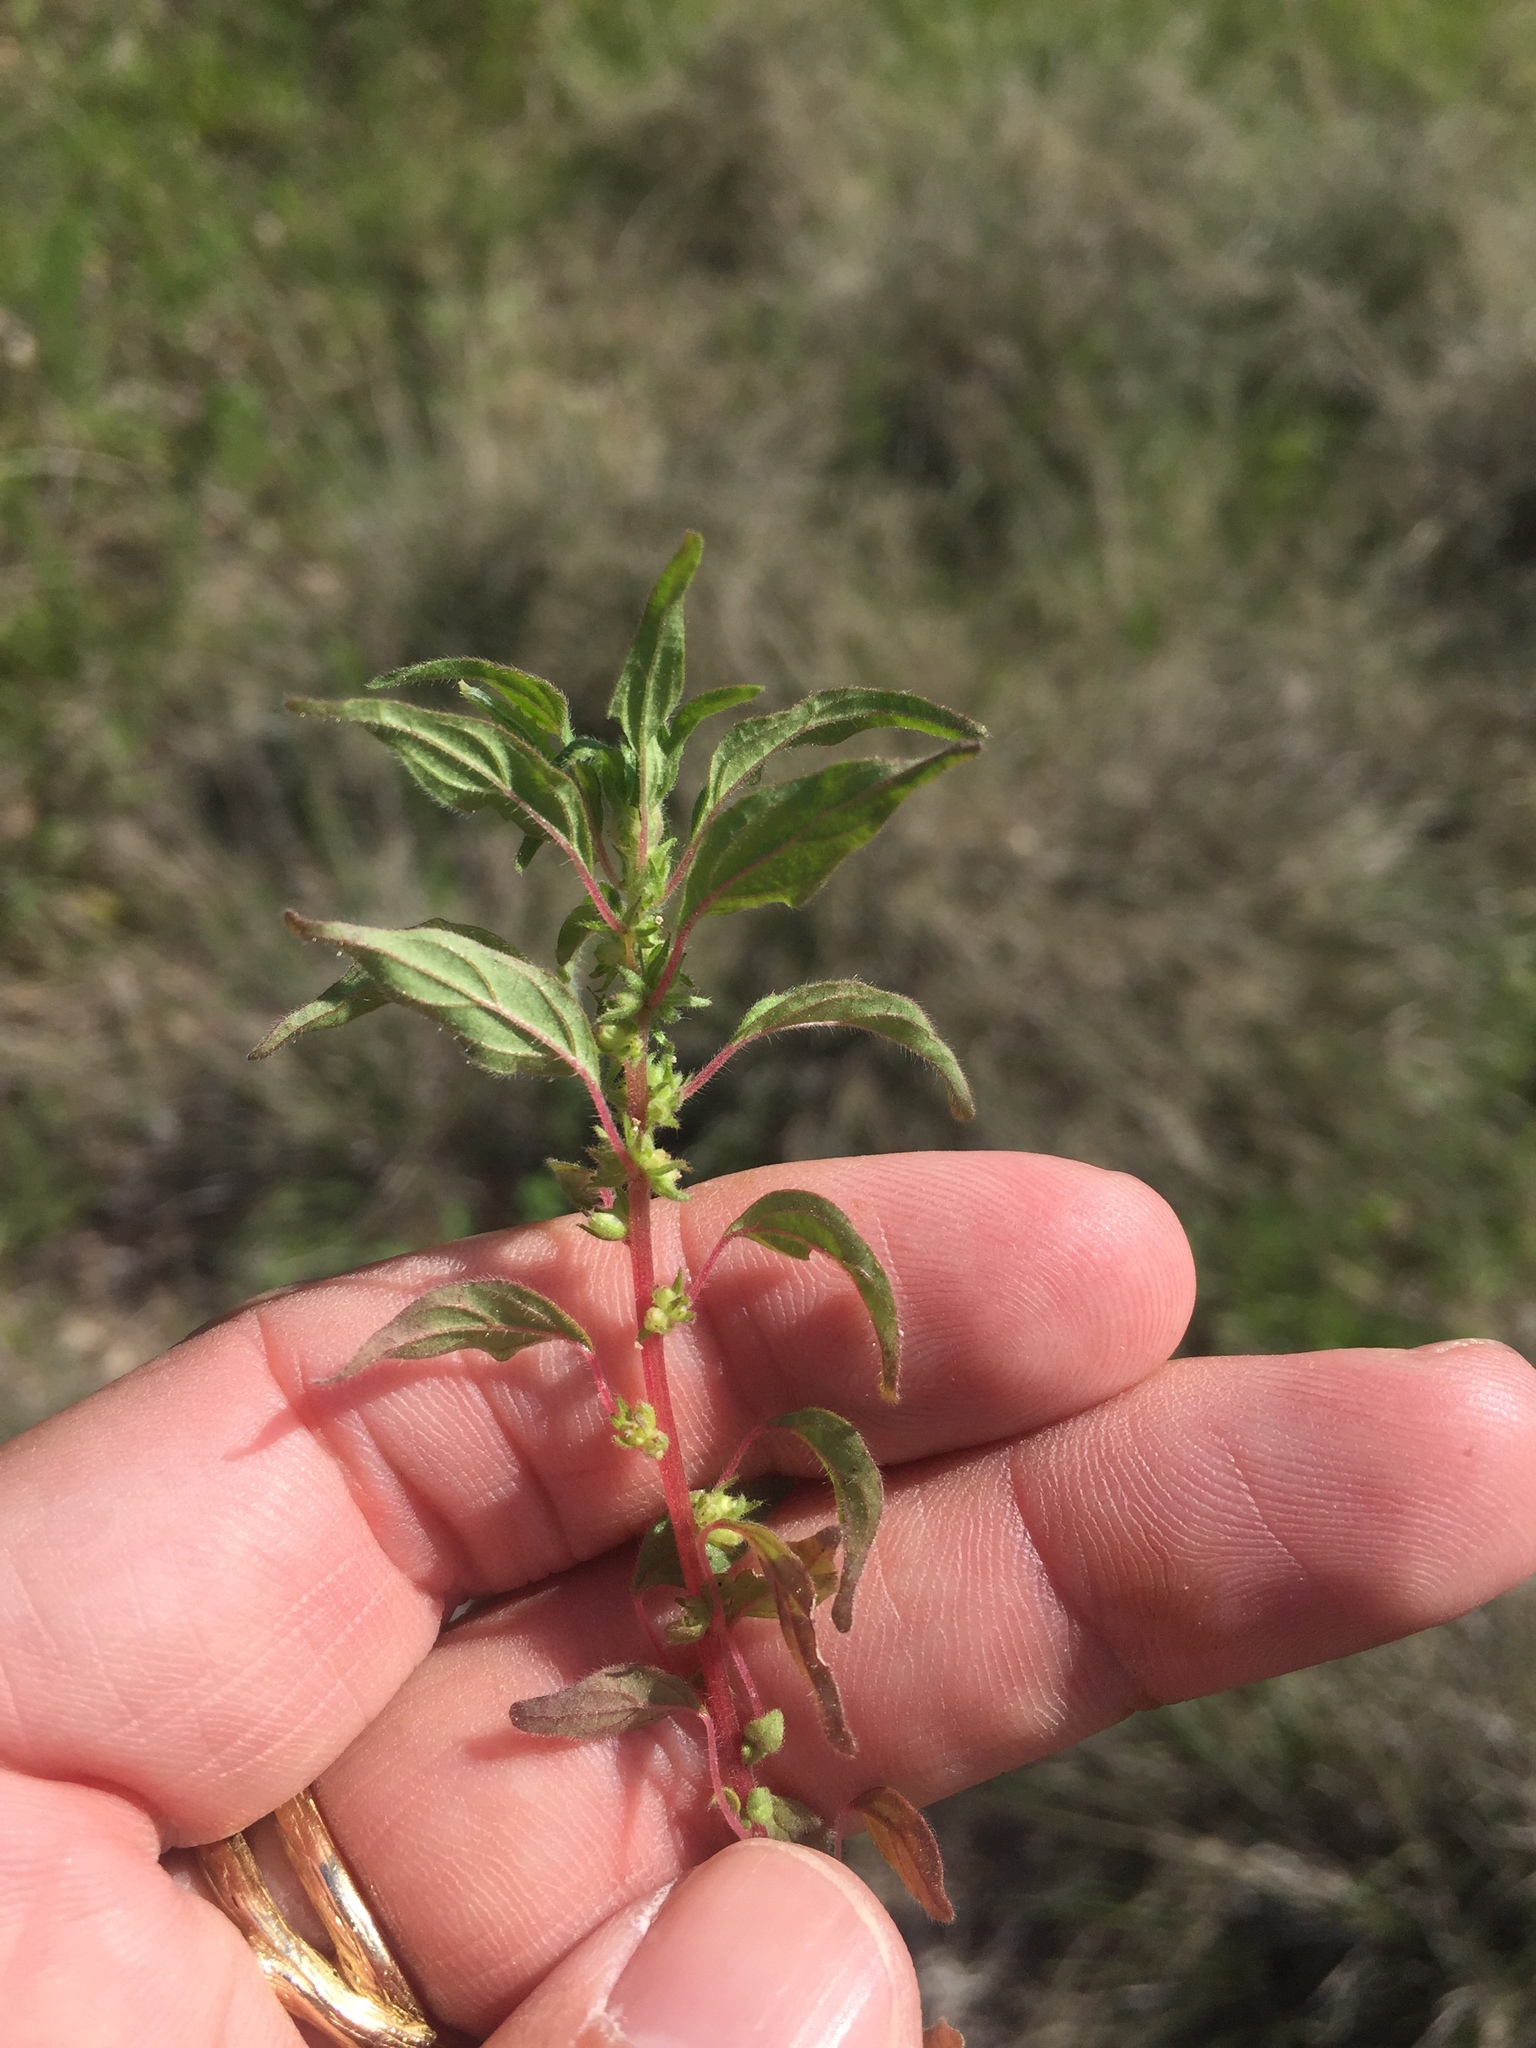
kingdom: Plantae
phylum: Tracheophyta
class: Magnoliopsida
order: Rosales
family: Urticaceae
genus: Parietaria
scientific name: Parietaria pensylvanica
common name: Pennsylvania pellitory
